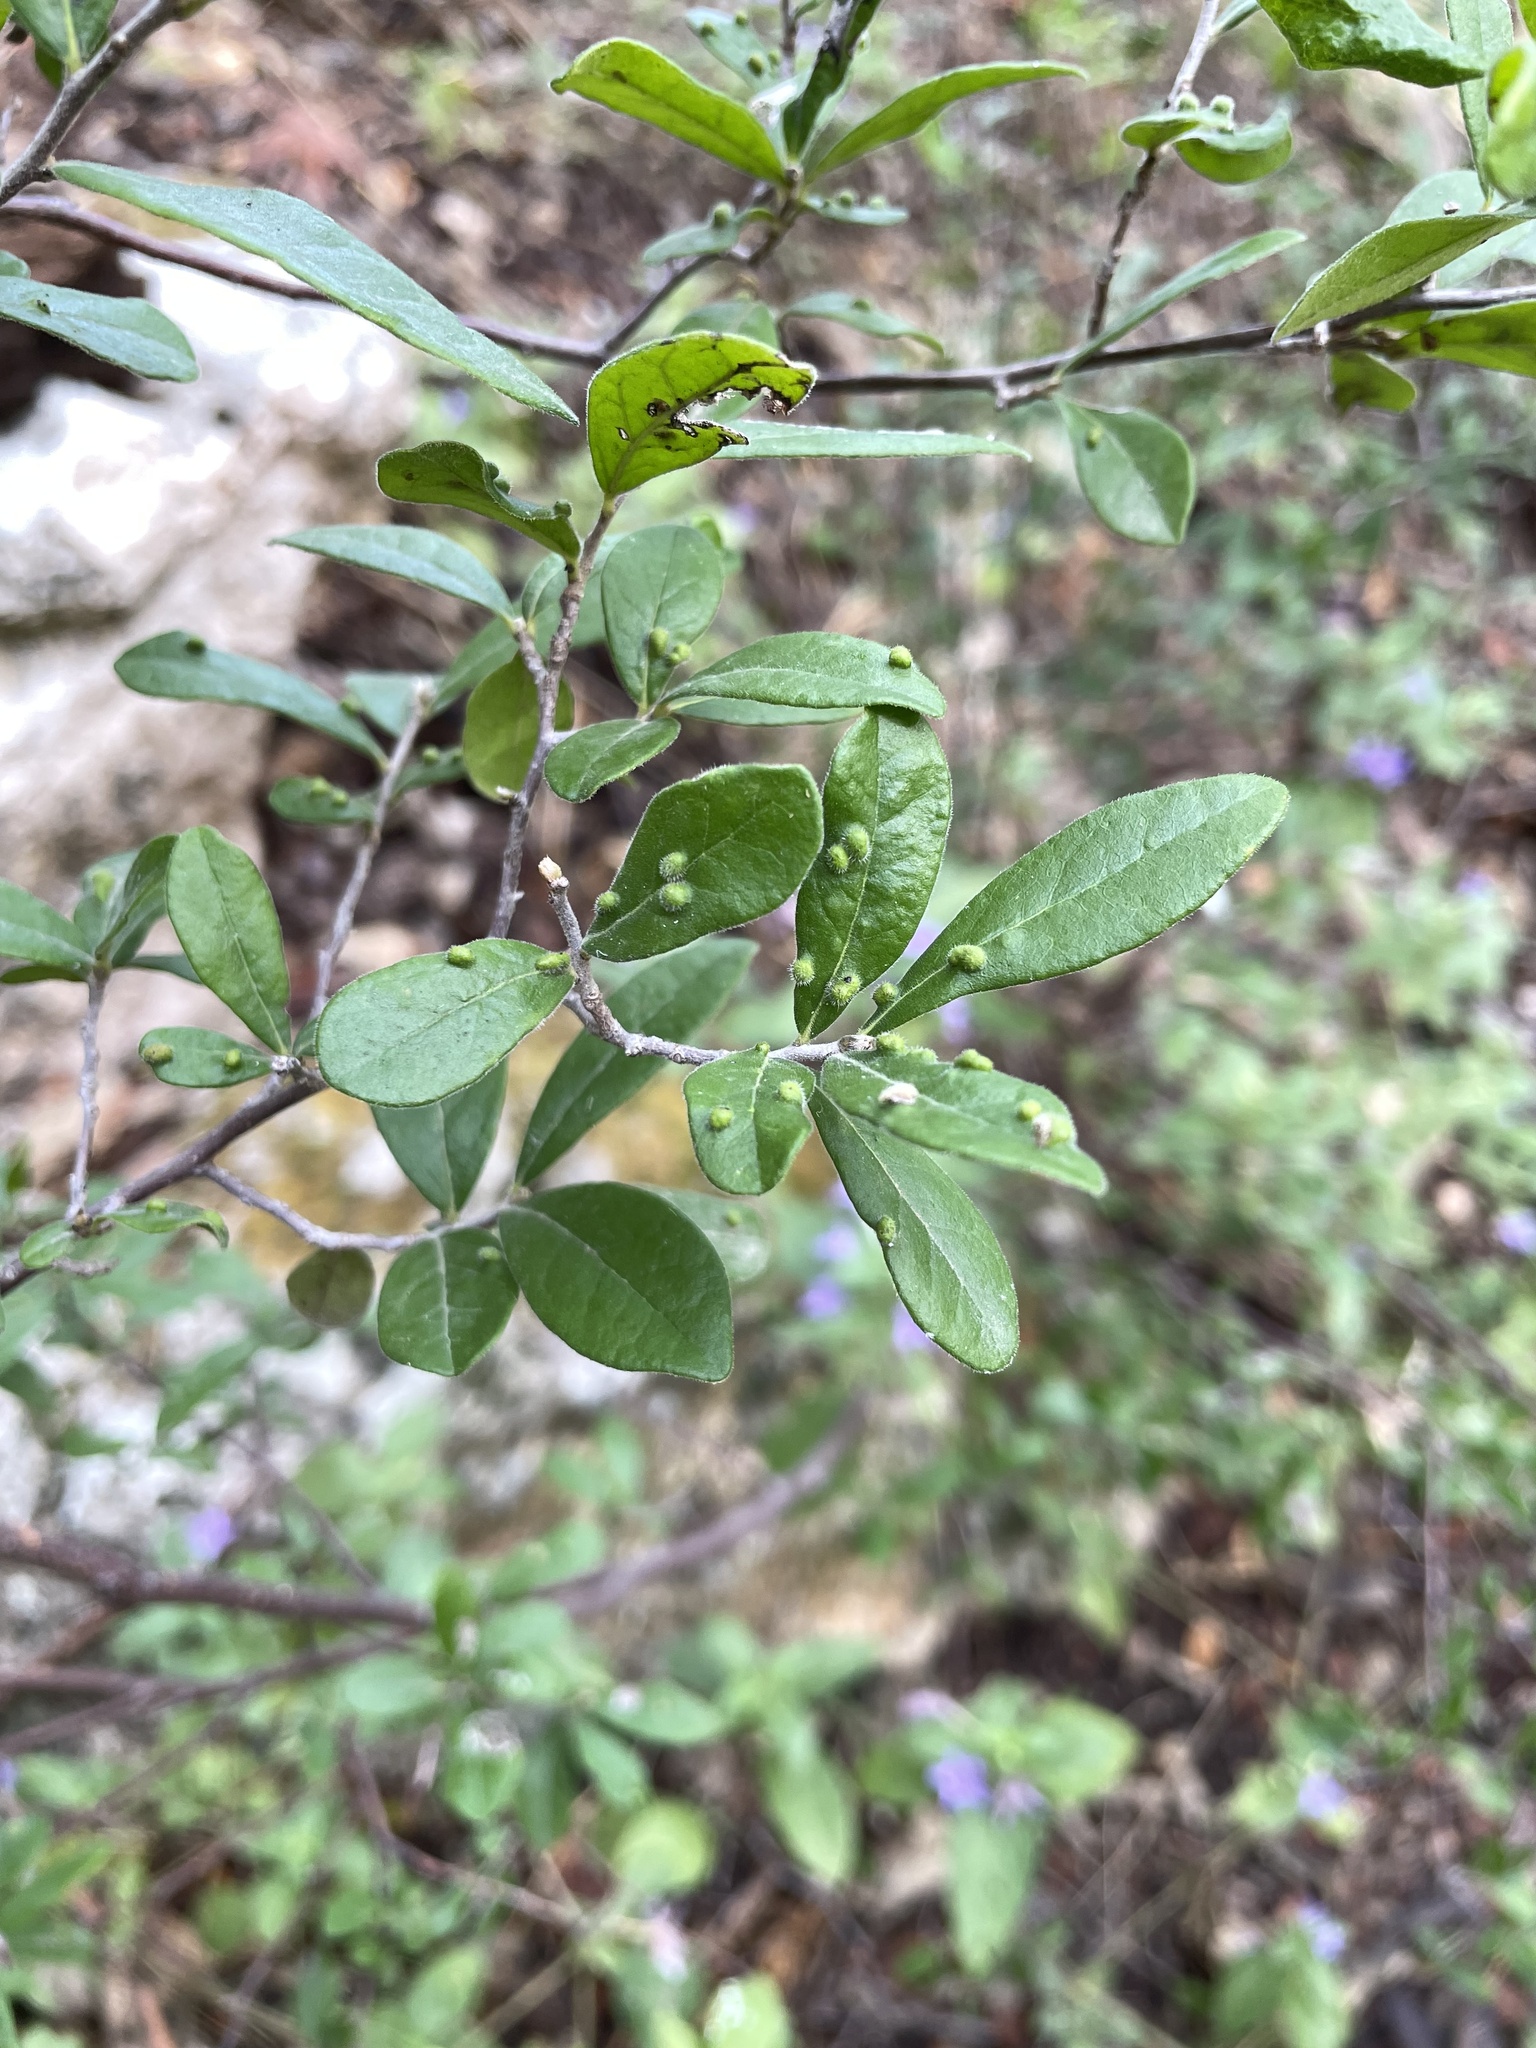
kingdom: Plantae
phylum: Tracheophyta
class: Magnoliopsida
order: Ericales
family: Ebenaceae
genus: Diospyros
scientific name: Diospyros texana
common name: Texas persimmon
